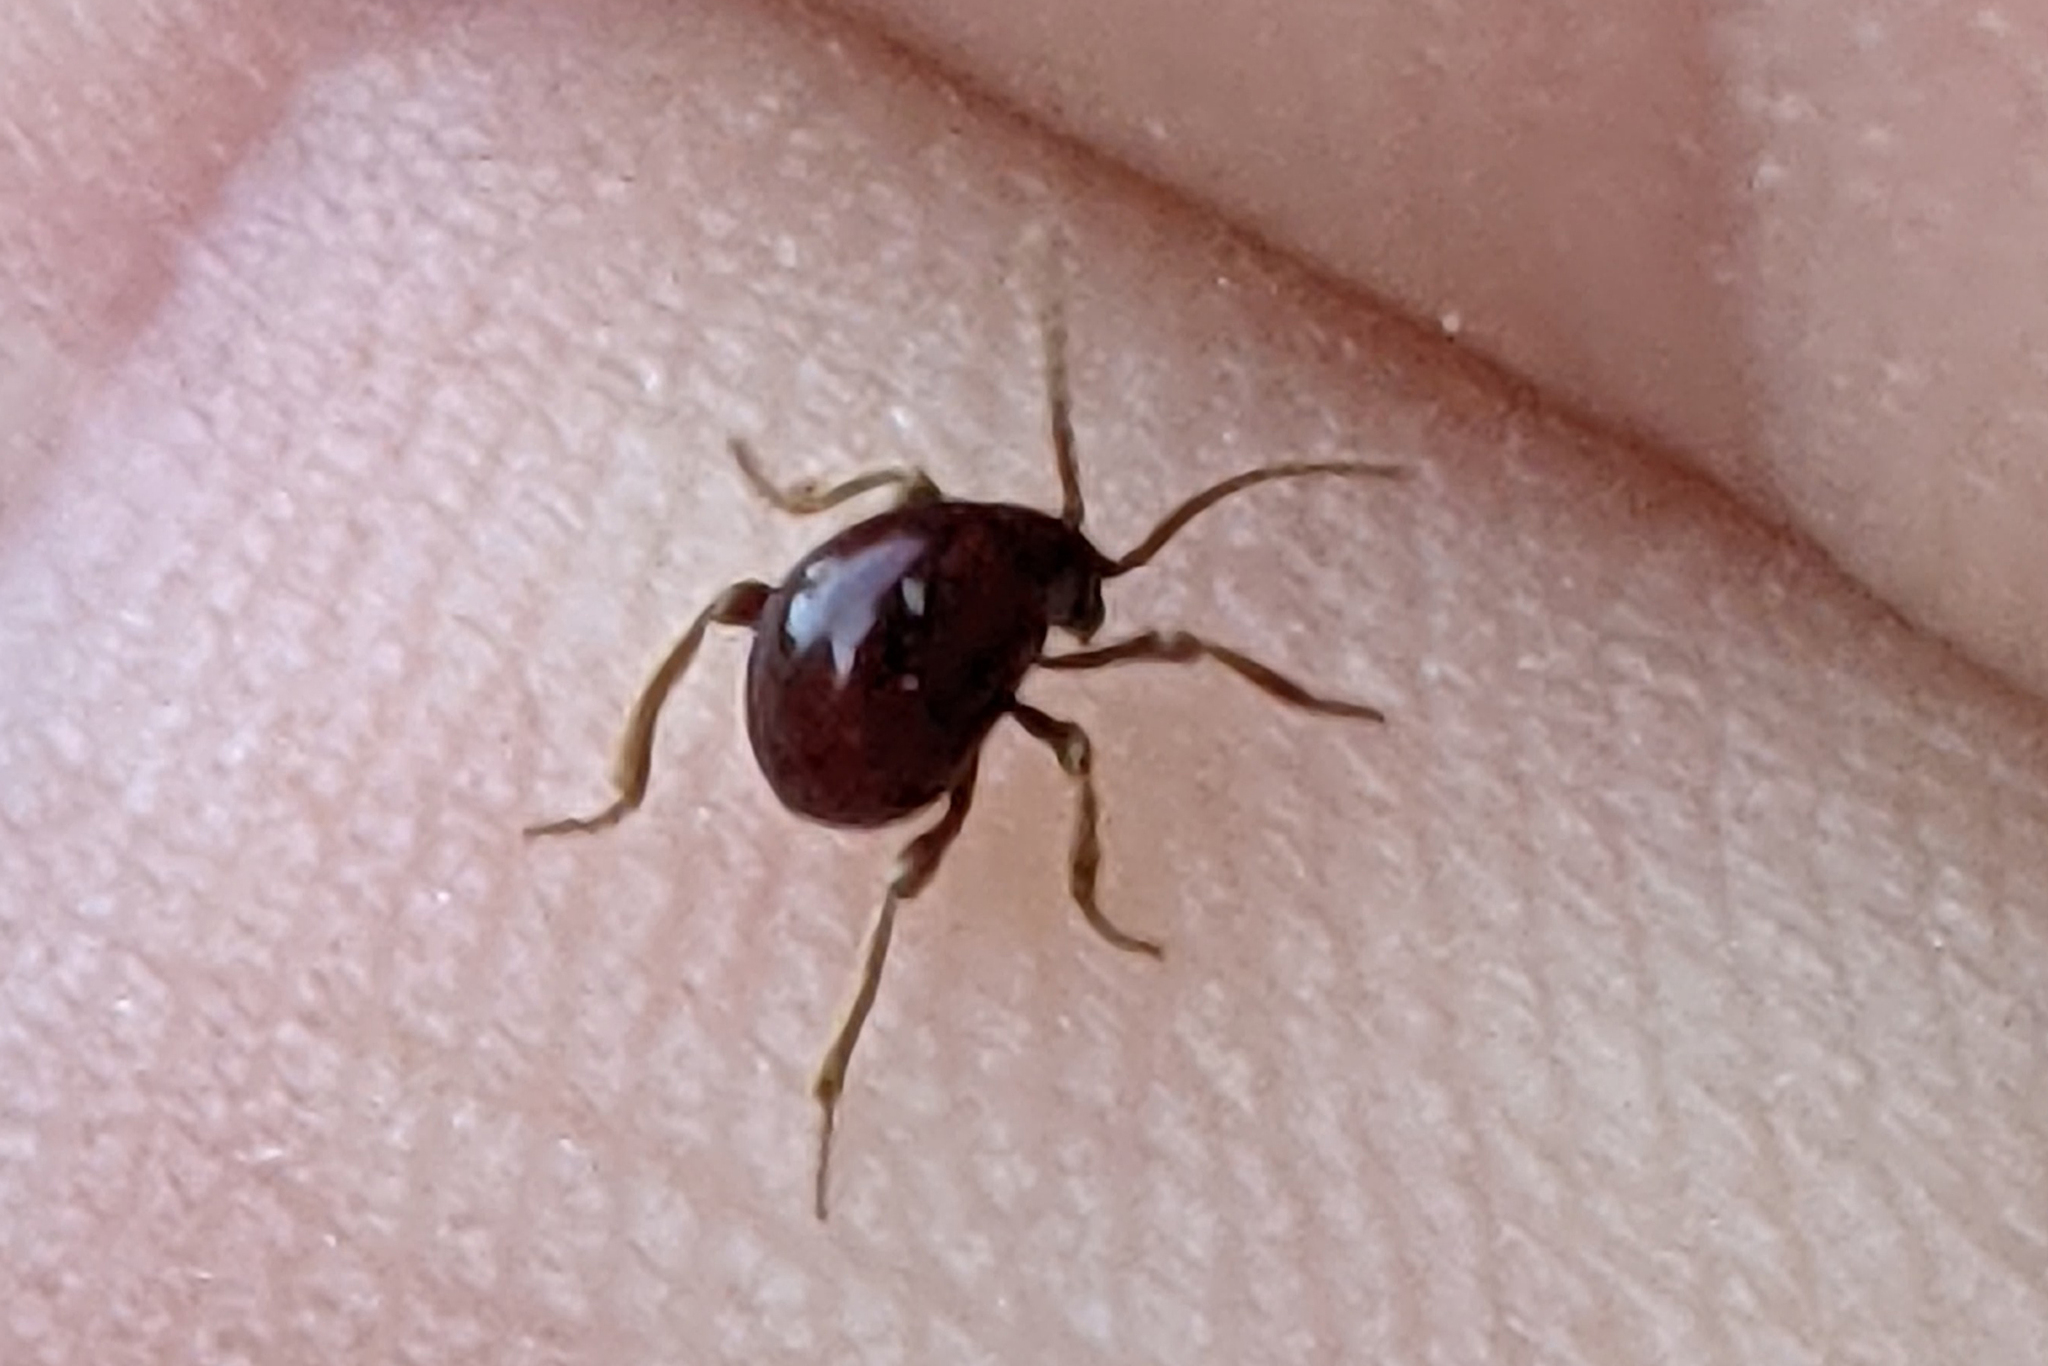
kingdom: Animalia
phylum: Arthropoda
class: Insecta
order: Coleoptera
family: Ptinidae
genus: Gibbium
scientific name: Gibbium aequinoctiale
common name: Smooth spider beetle
